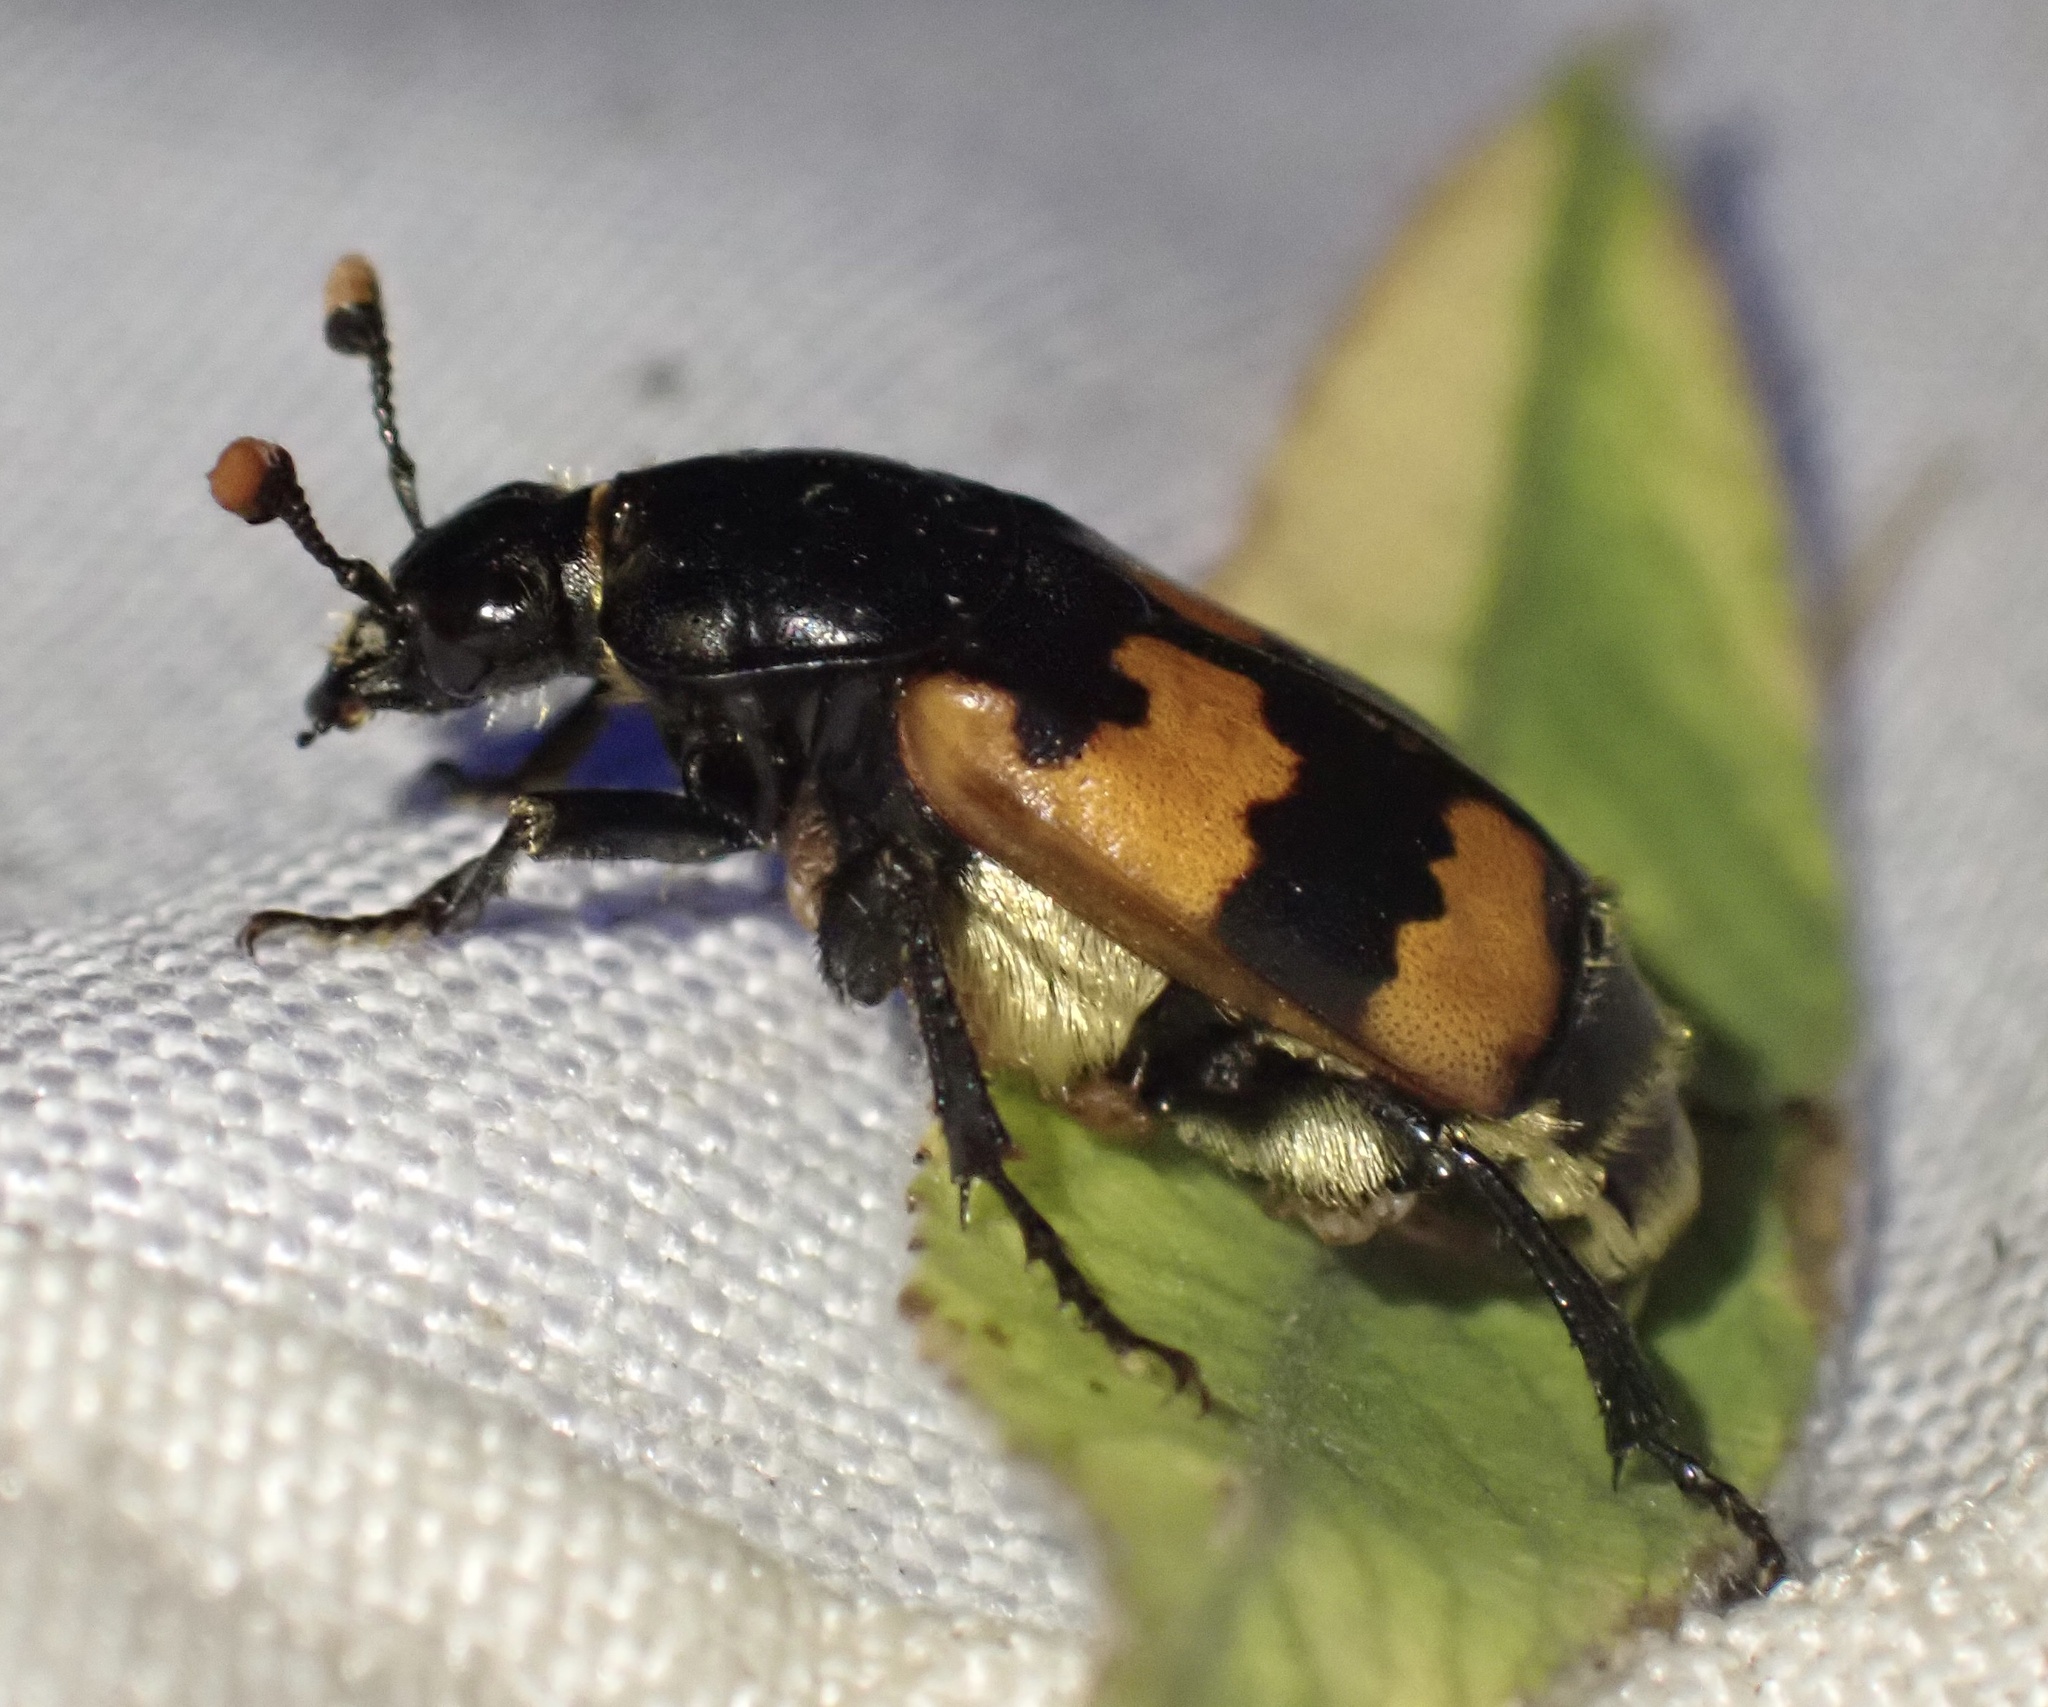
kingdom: Animalia
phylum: Arthropoda
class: Insecta
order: Coleoptera
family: Staphylinidae
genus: Nicrophorus
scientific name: Nicrophorus vespillo
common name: Common burying beetle
